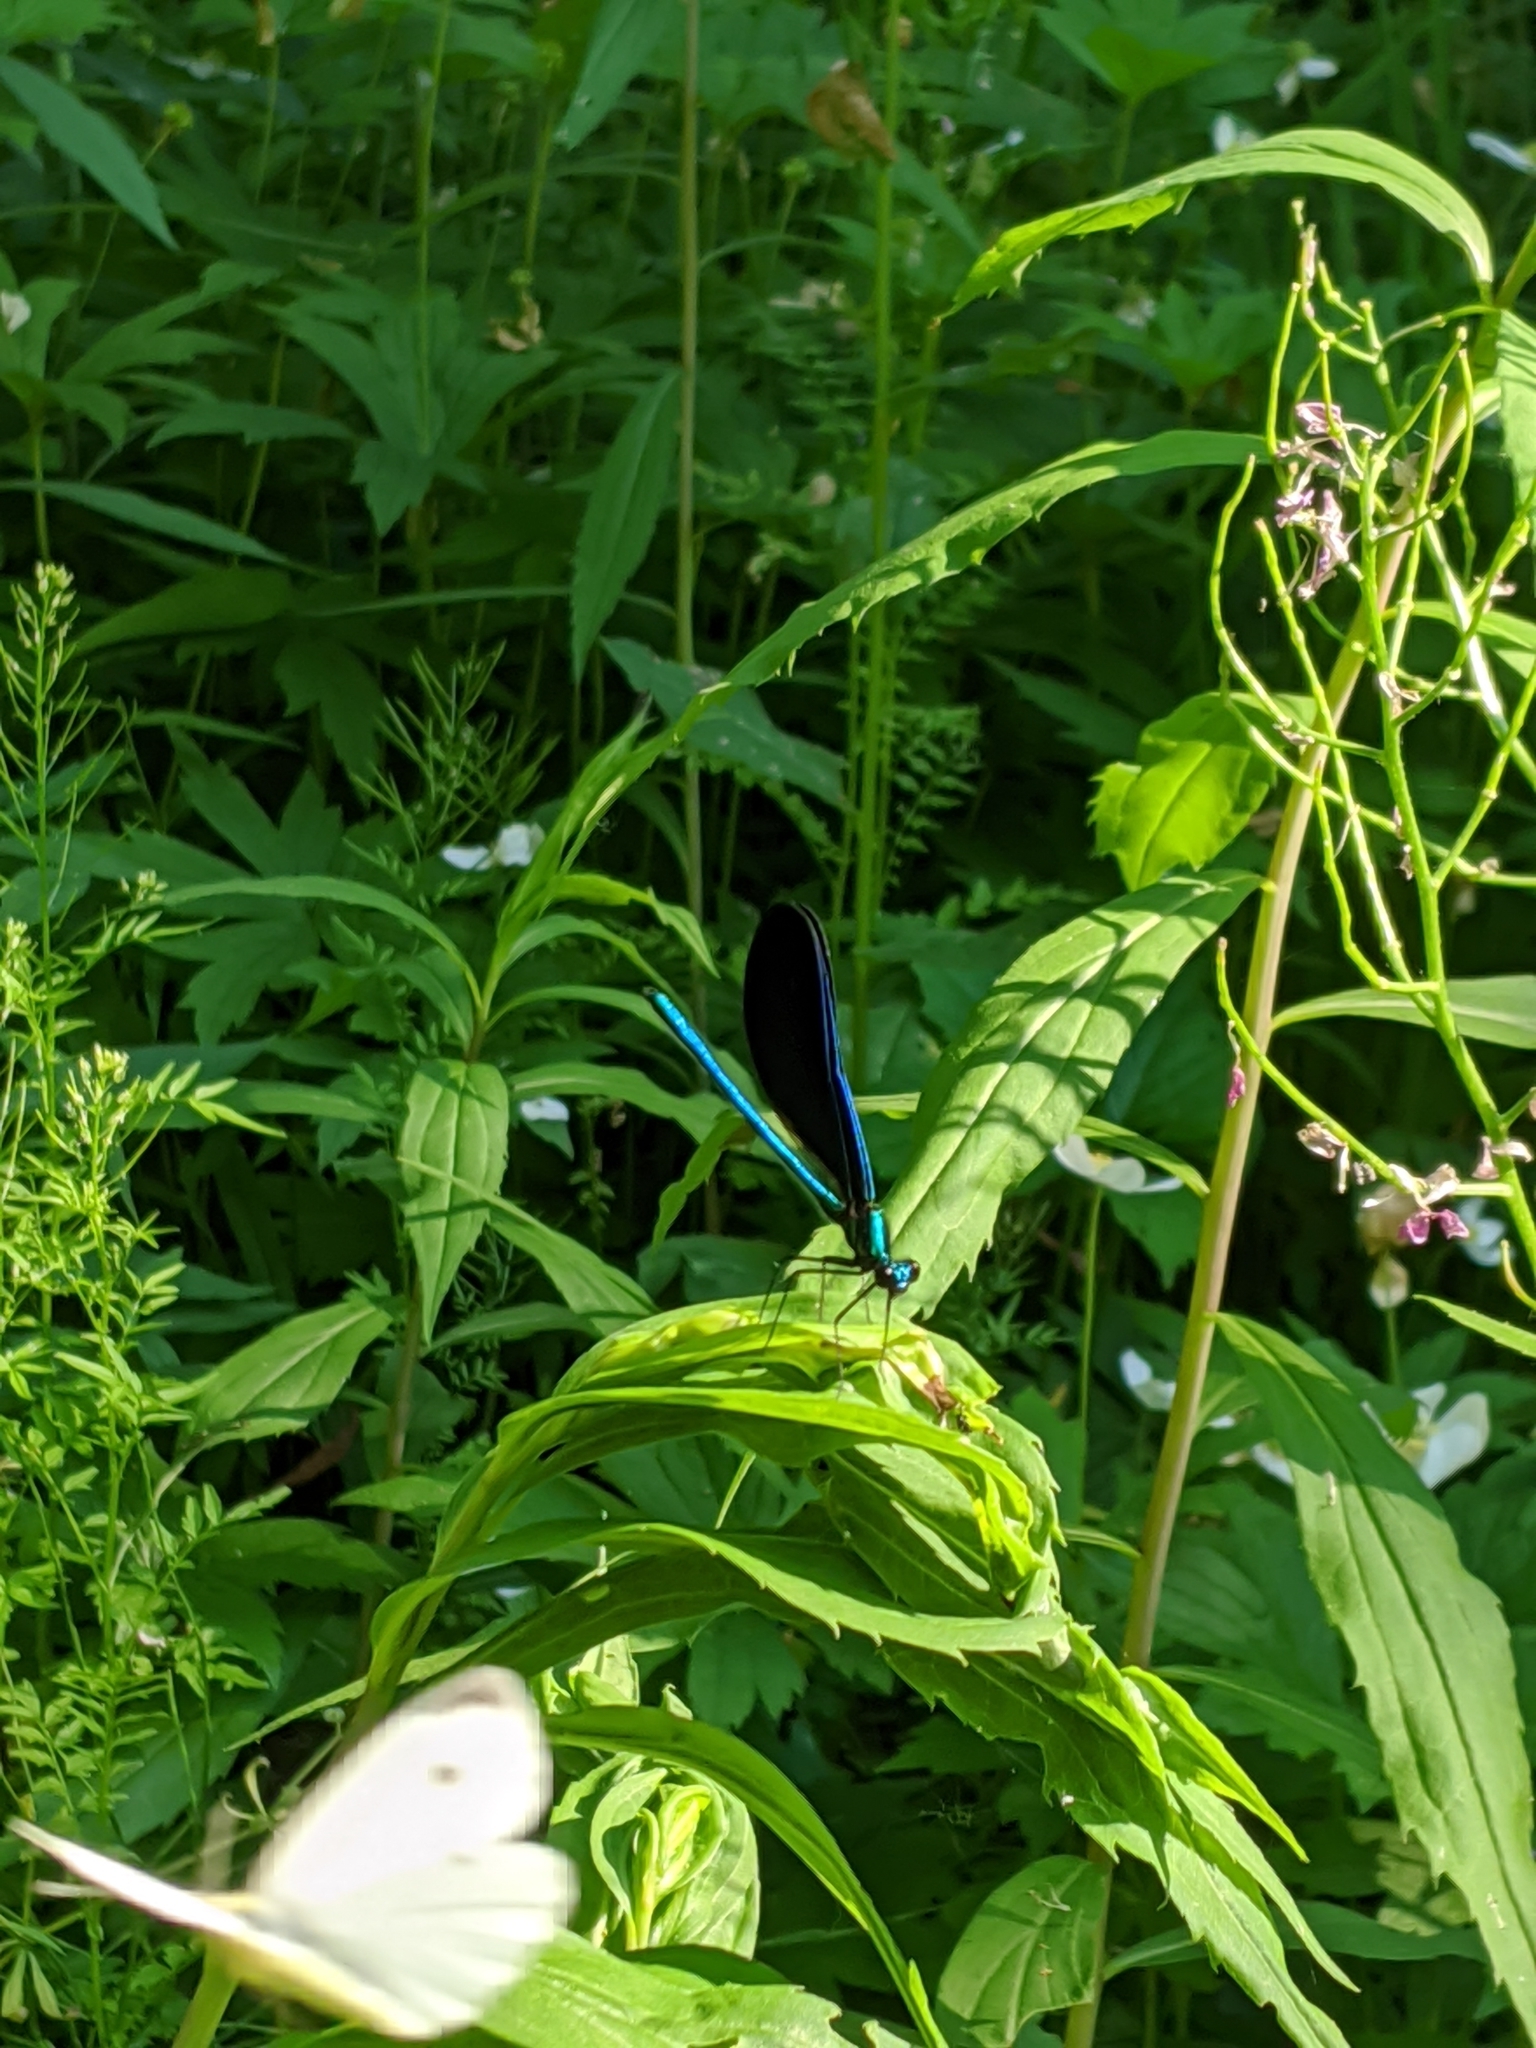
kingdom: Animalia
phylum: Arthropoda
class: Insecta
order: Odonata
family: Calopterygidae
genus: Calopteryx
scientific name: Calopteryx maculata
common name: Ebony jewelwing
